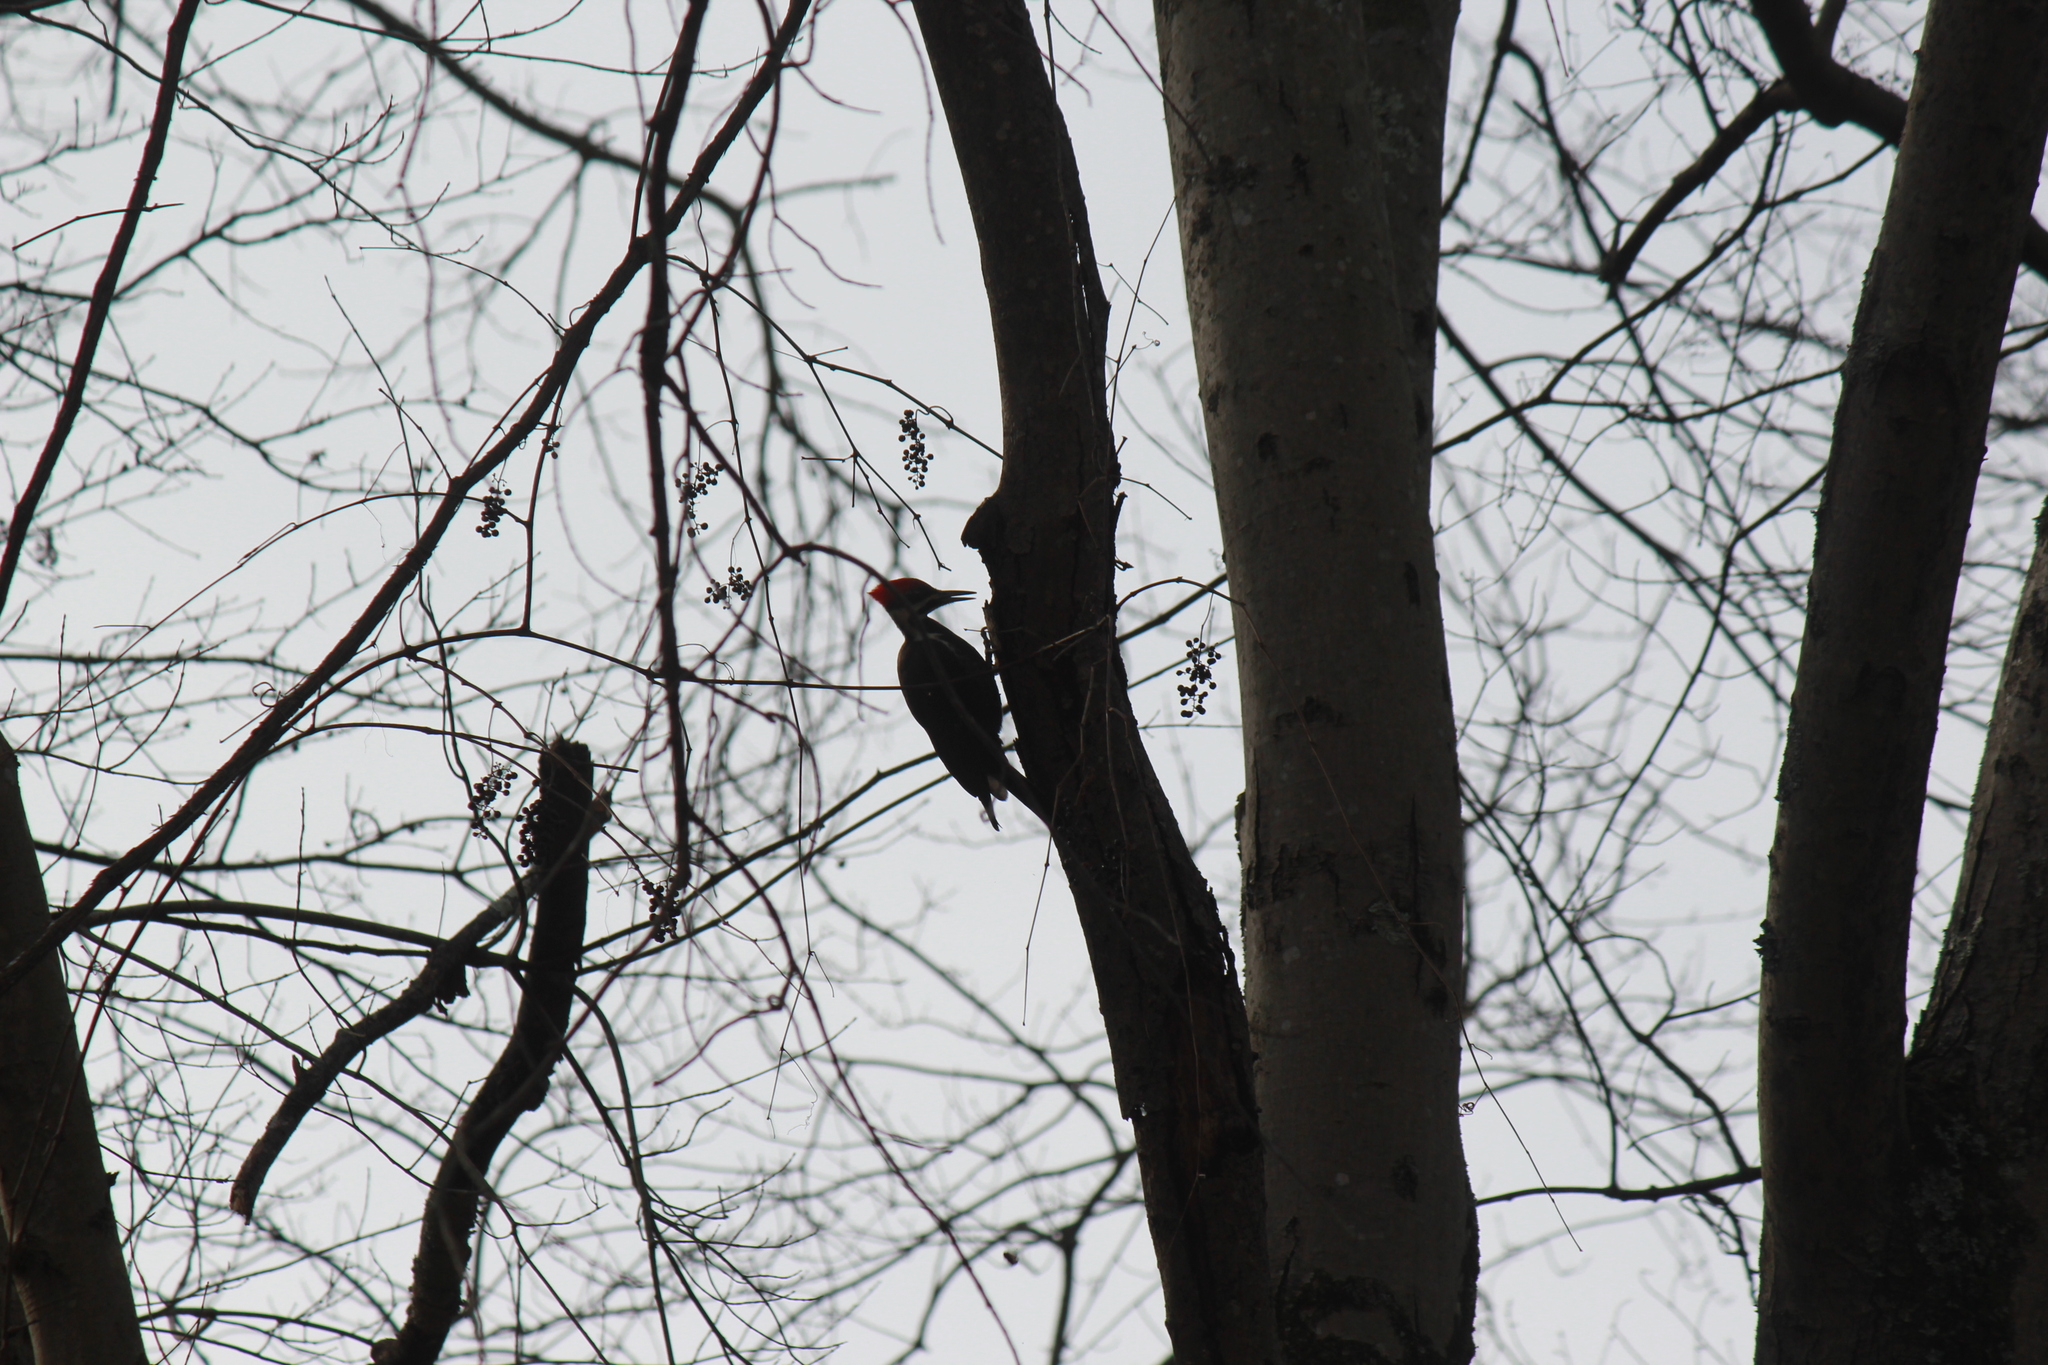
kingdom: Animalia
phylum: Chordata
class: Aves
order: Piciformes
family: Picidae
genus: Dryocopus
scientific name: Dryocopus pileatus
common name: Pileated woodpecker
